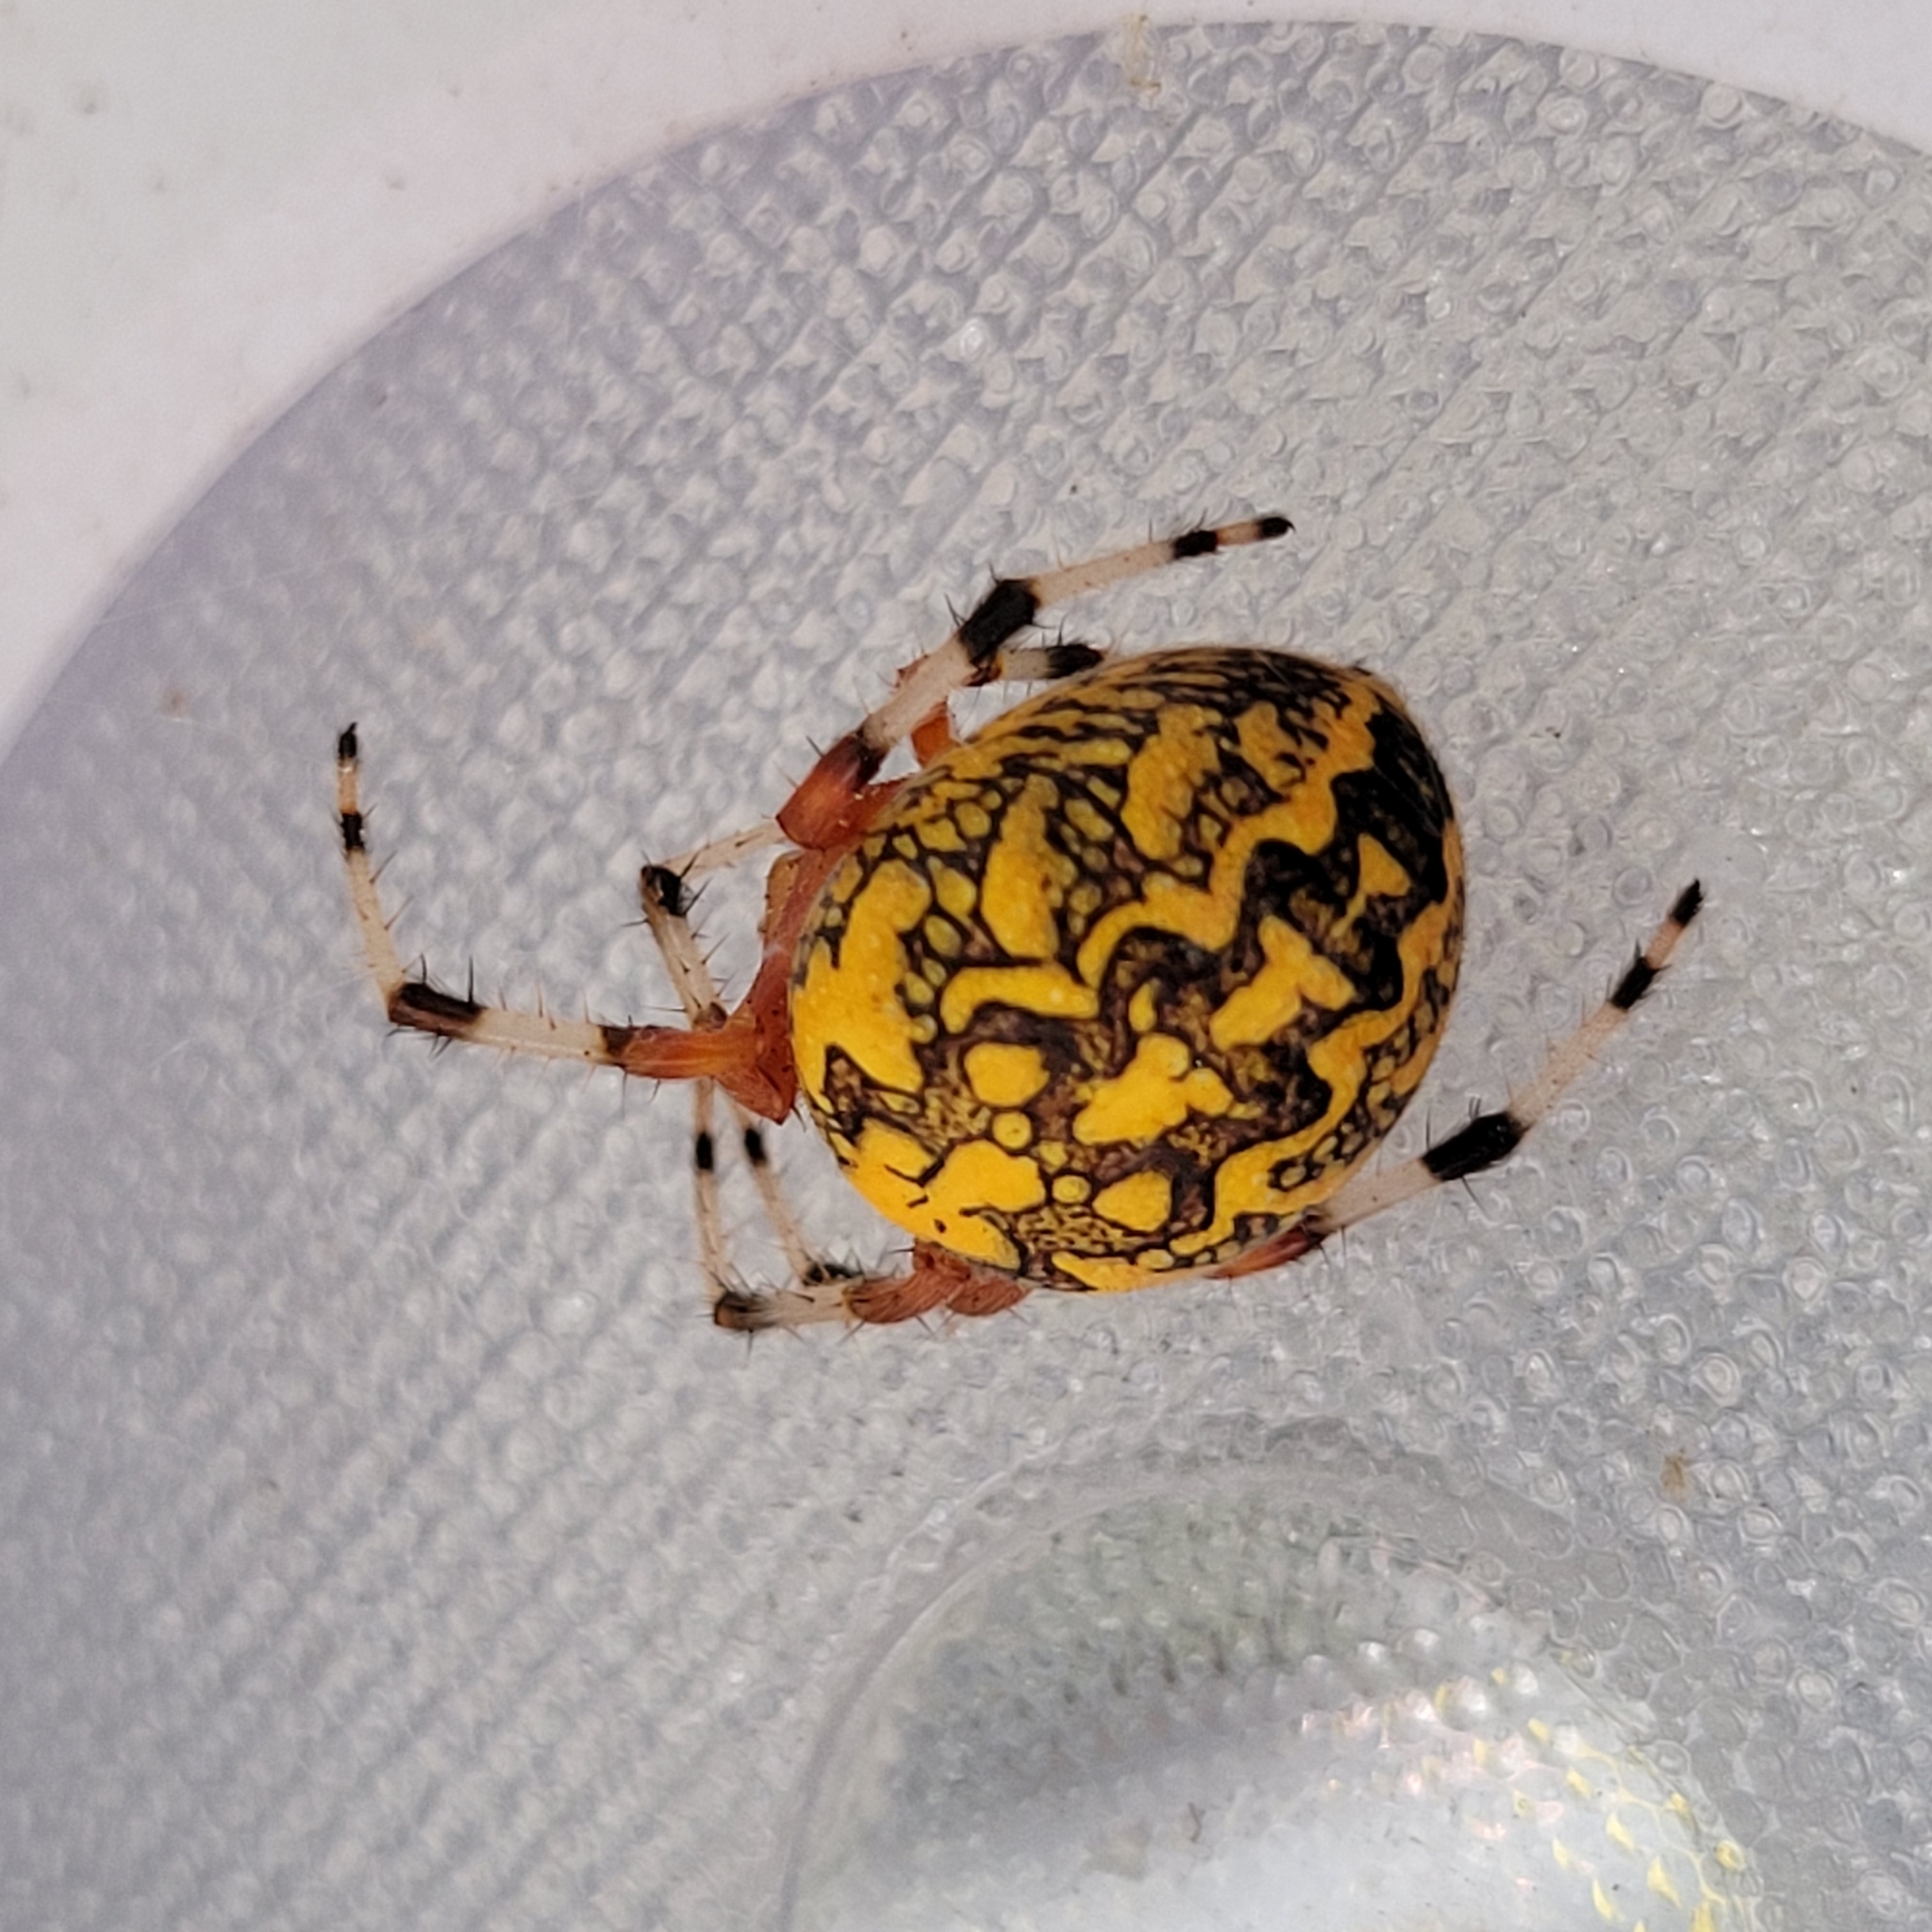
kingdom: Animalia
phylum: Arthropoda
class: Arachnida
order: Araneae
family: Araneidae
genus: Araneus
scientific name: Araneus marmoreus
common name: Marbled orbweaver
